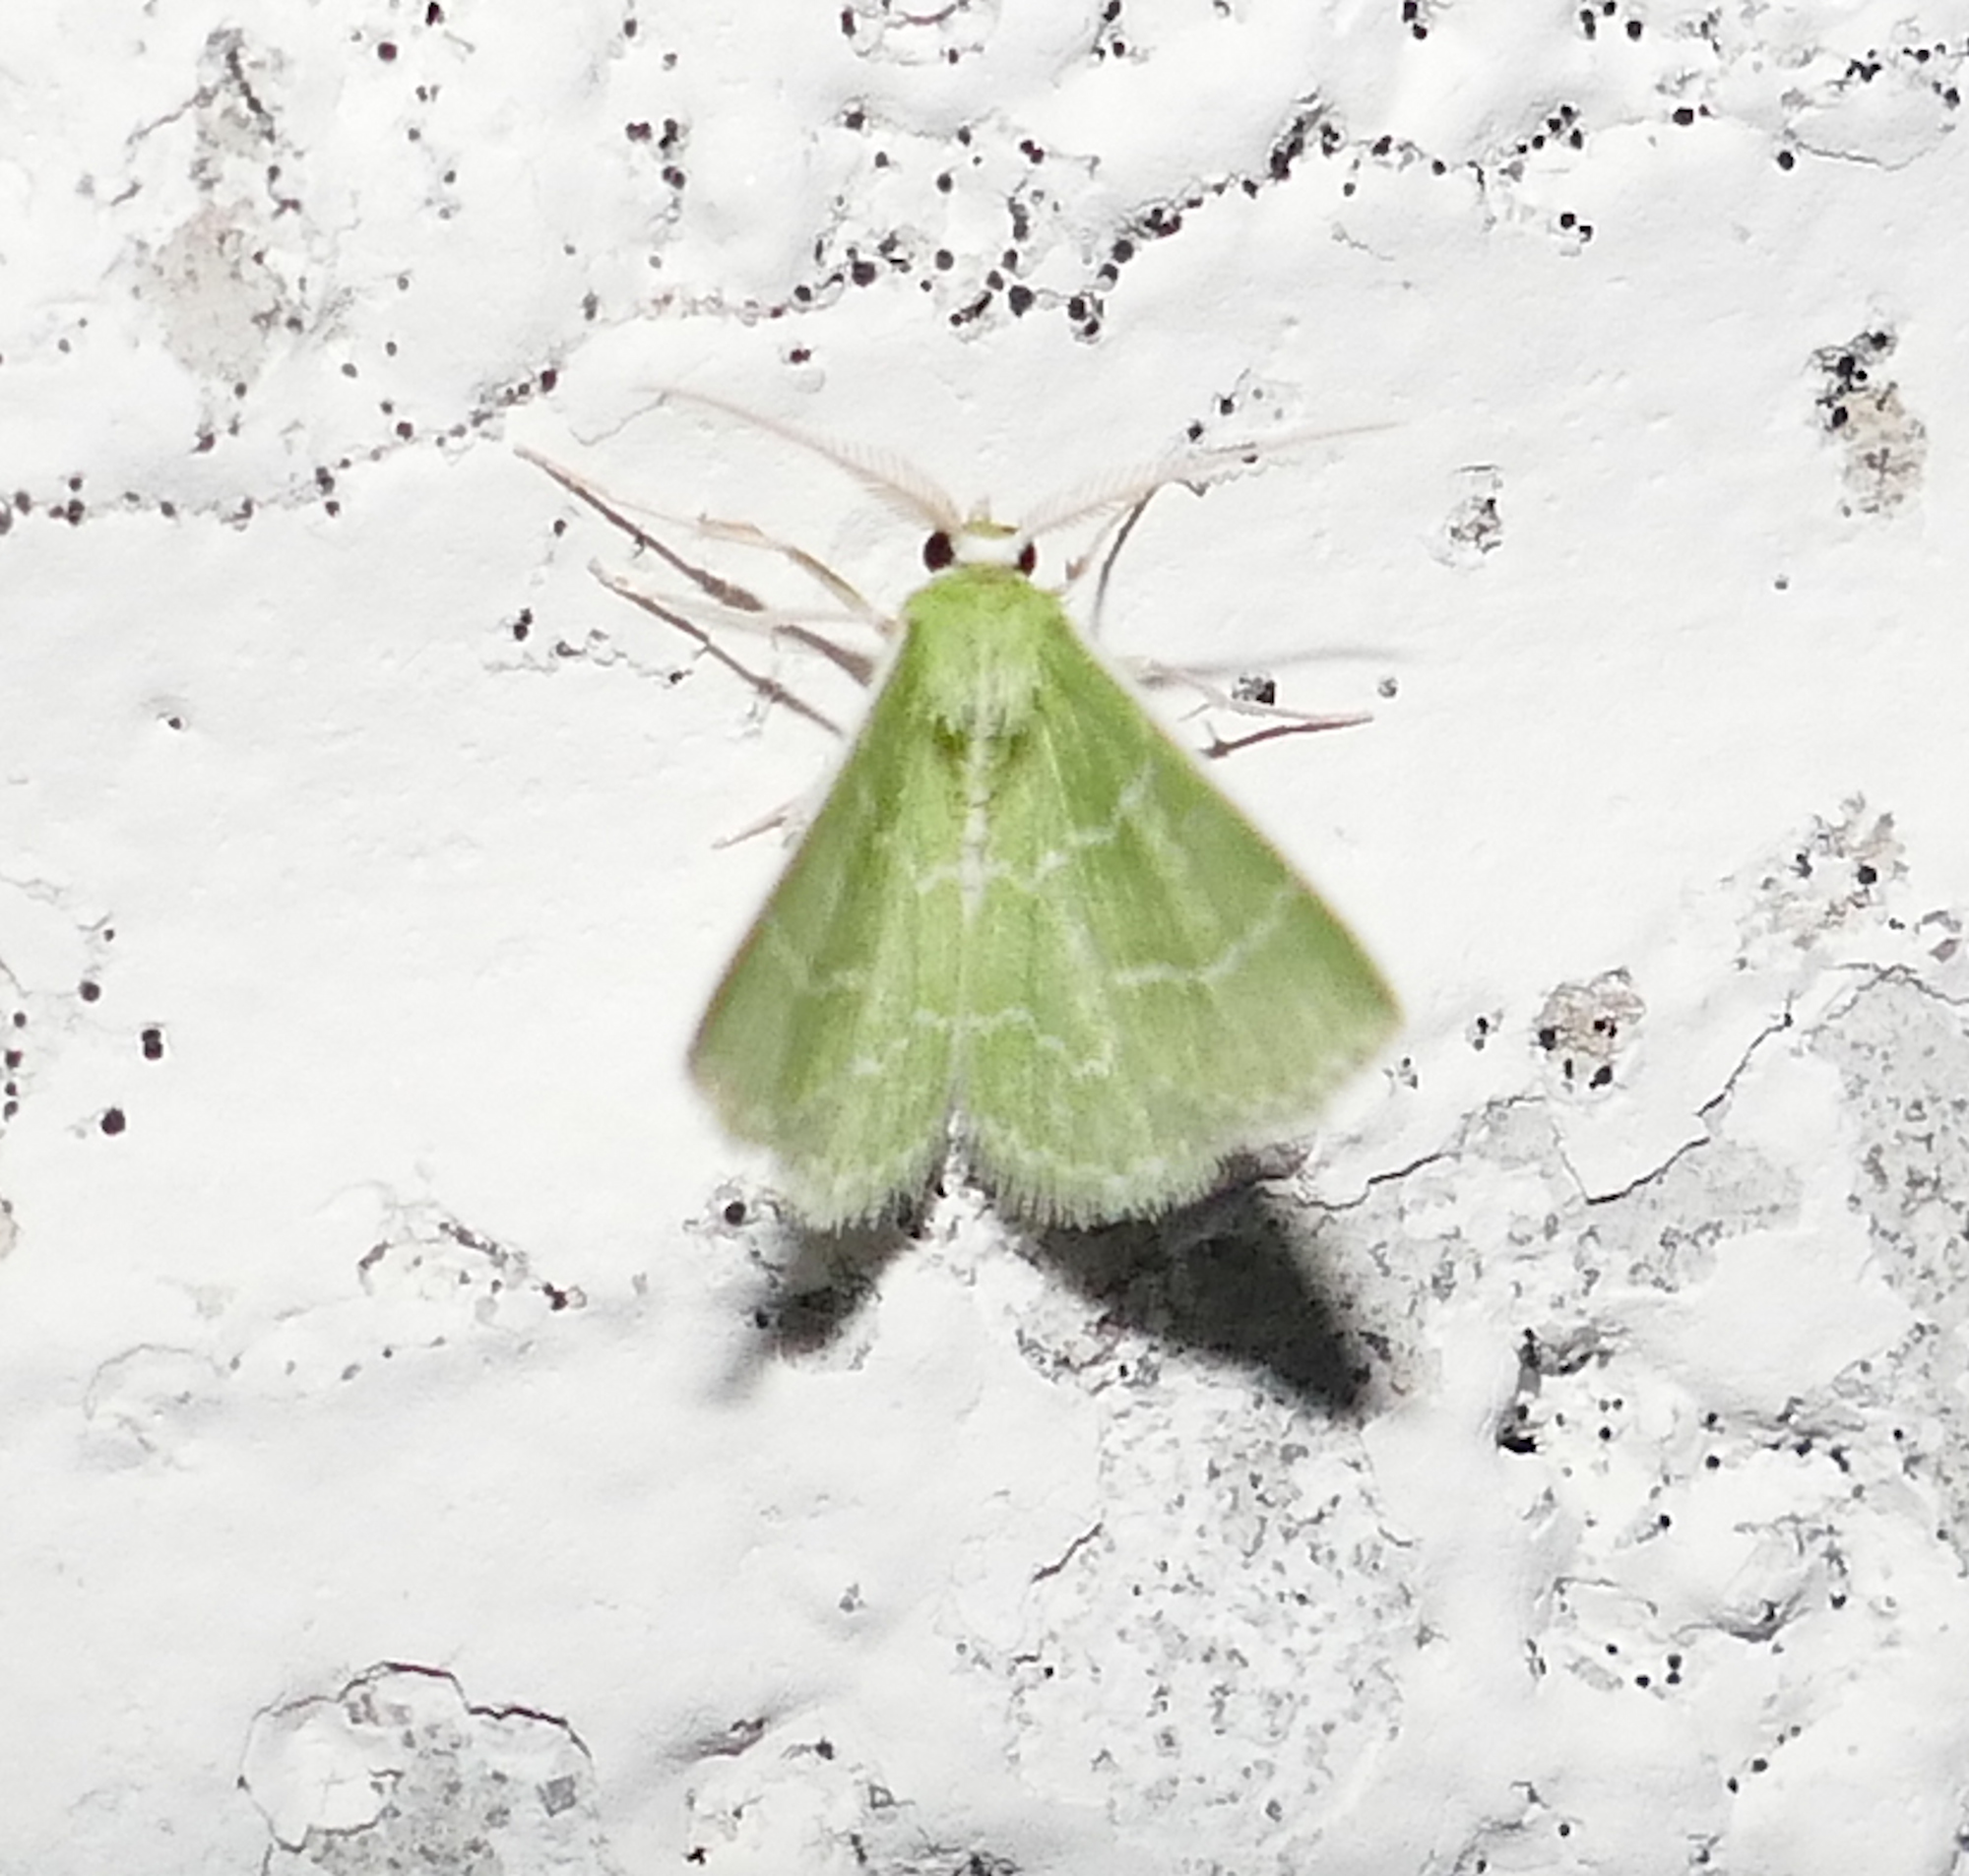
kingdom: Animalia
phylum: Arthropoda
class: Insecta
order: Lepidoptera
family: Geometridae
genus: Synchlora
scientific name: Synchlora aerata
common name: Wavy-lined emerald
